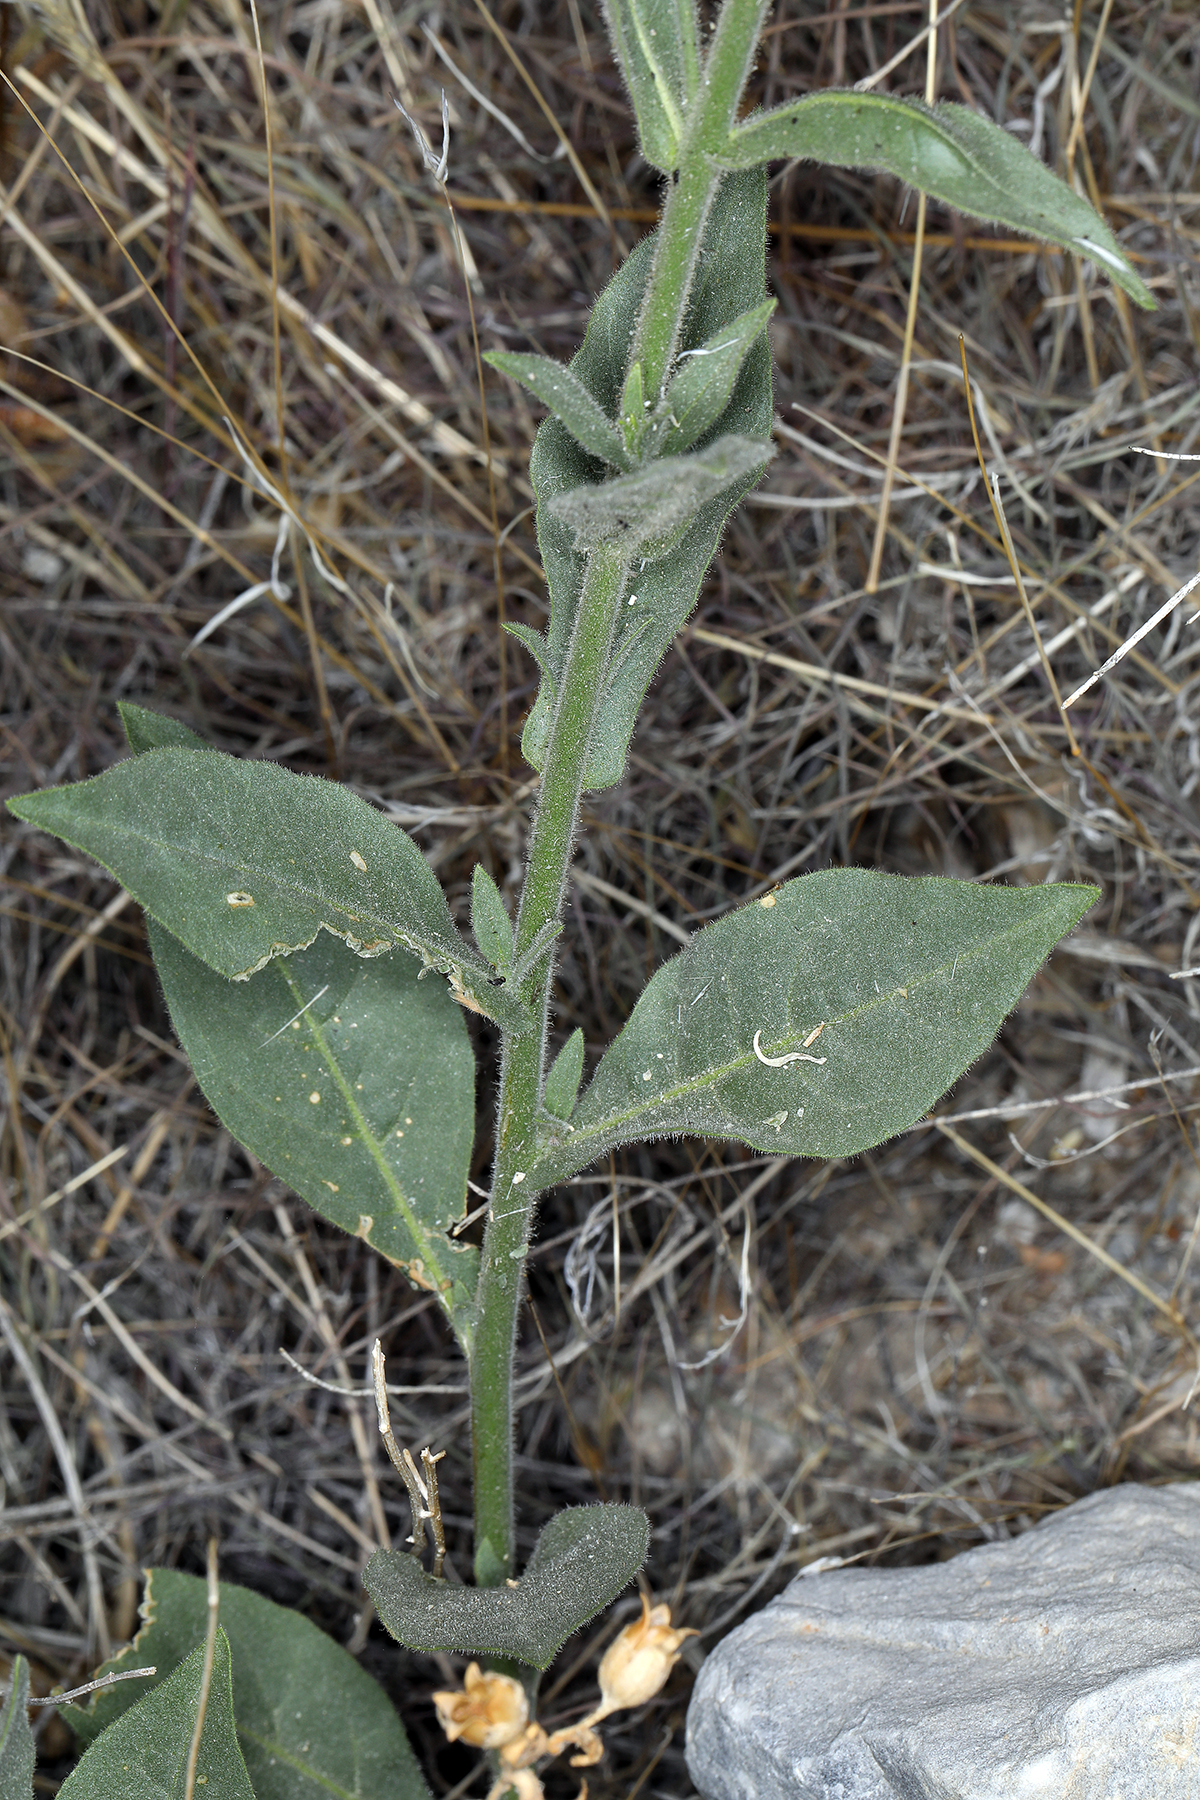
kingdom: Plantae
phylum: Tracheophyta
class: Magnoliopsida
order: Solanales
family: Solanaceae
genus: Nicotiana
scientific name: Nicotiana obtusifolia
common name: Desert tobacco
